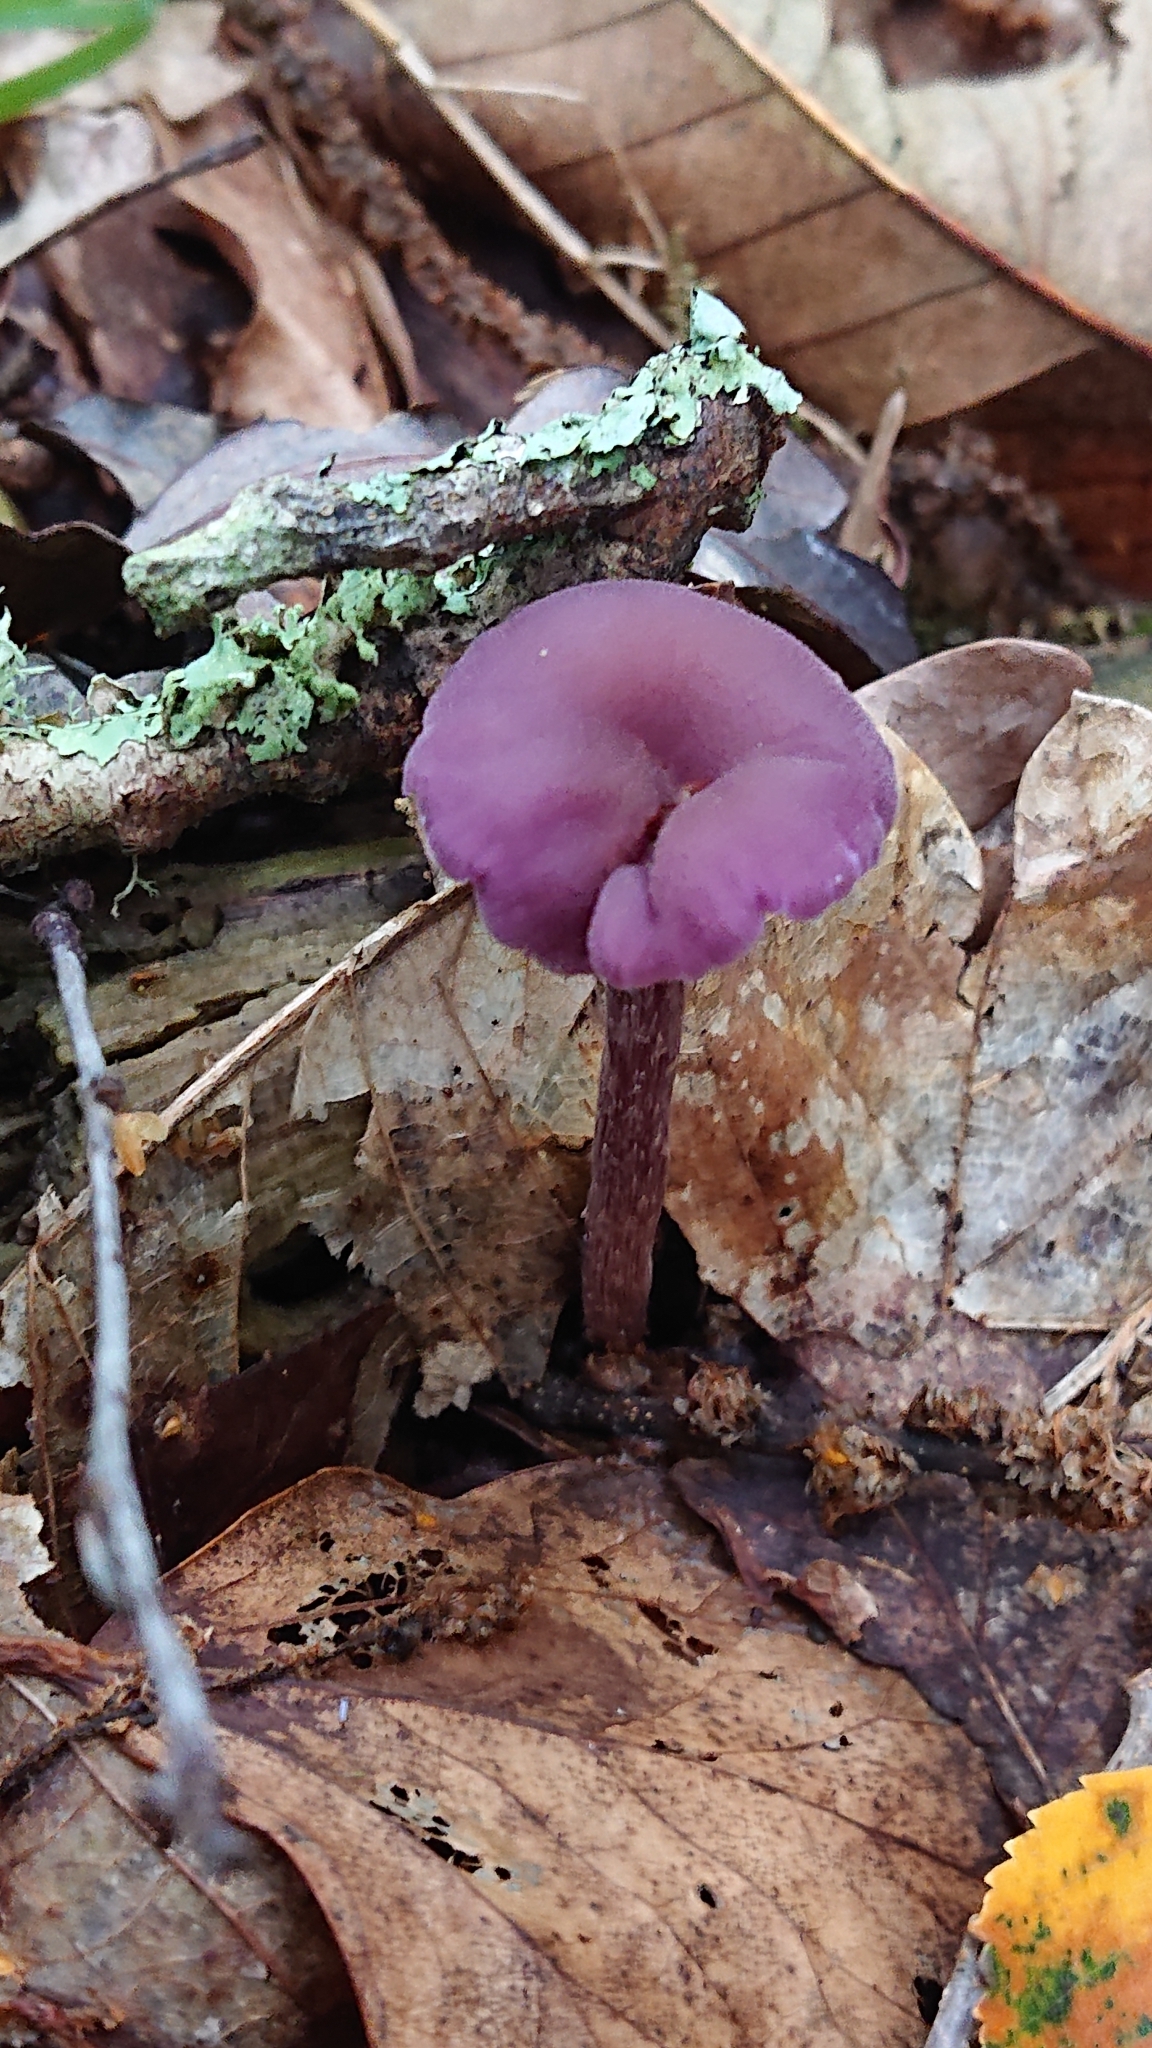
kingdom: Fungi
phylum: Basidiomycota
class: Agaricomycetes
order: Agaricales
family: Hydnangiaceae
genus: Laccaria
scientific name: Laccaria amethystina
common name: Amethyst deceiver
